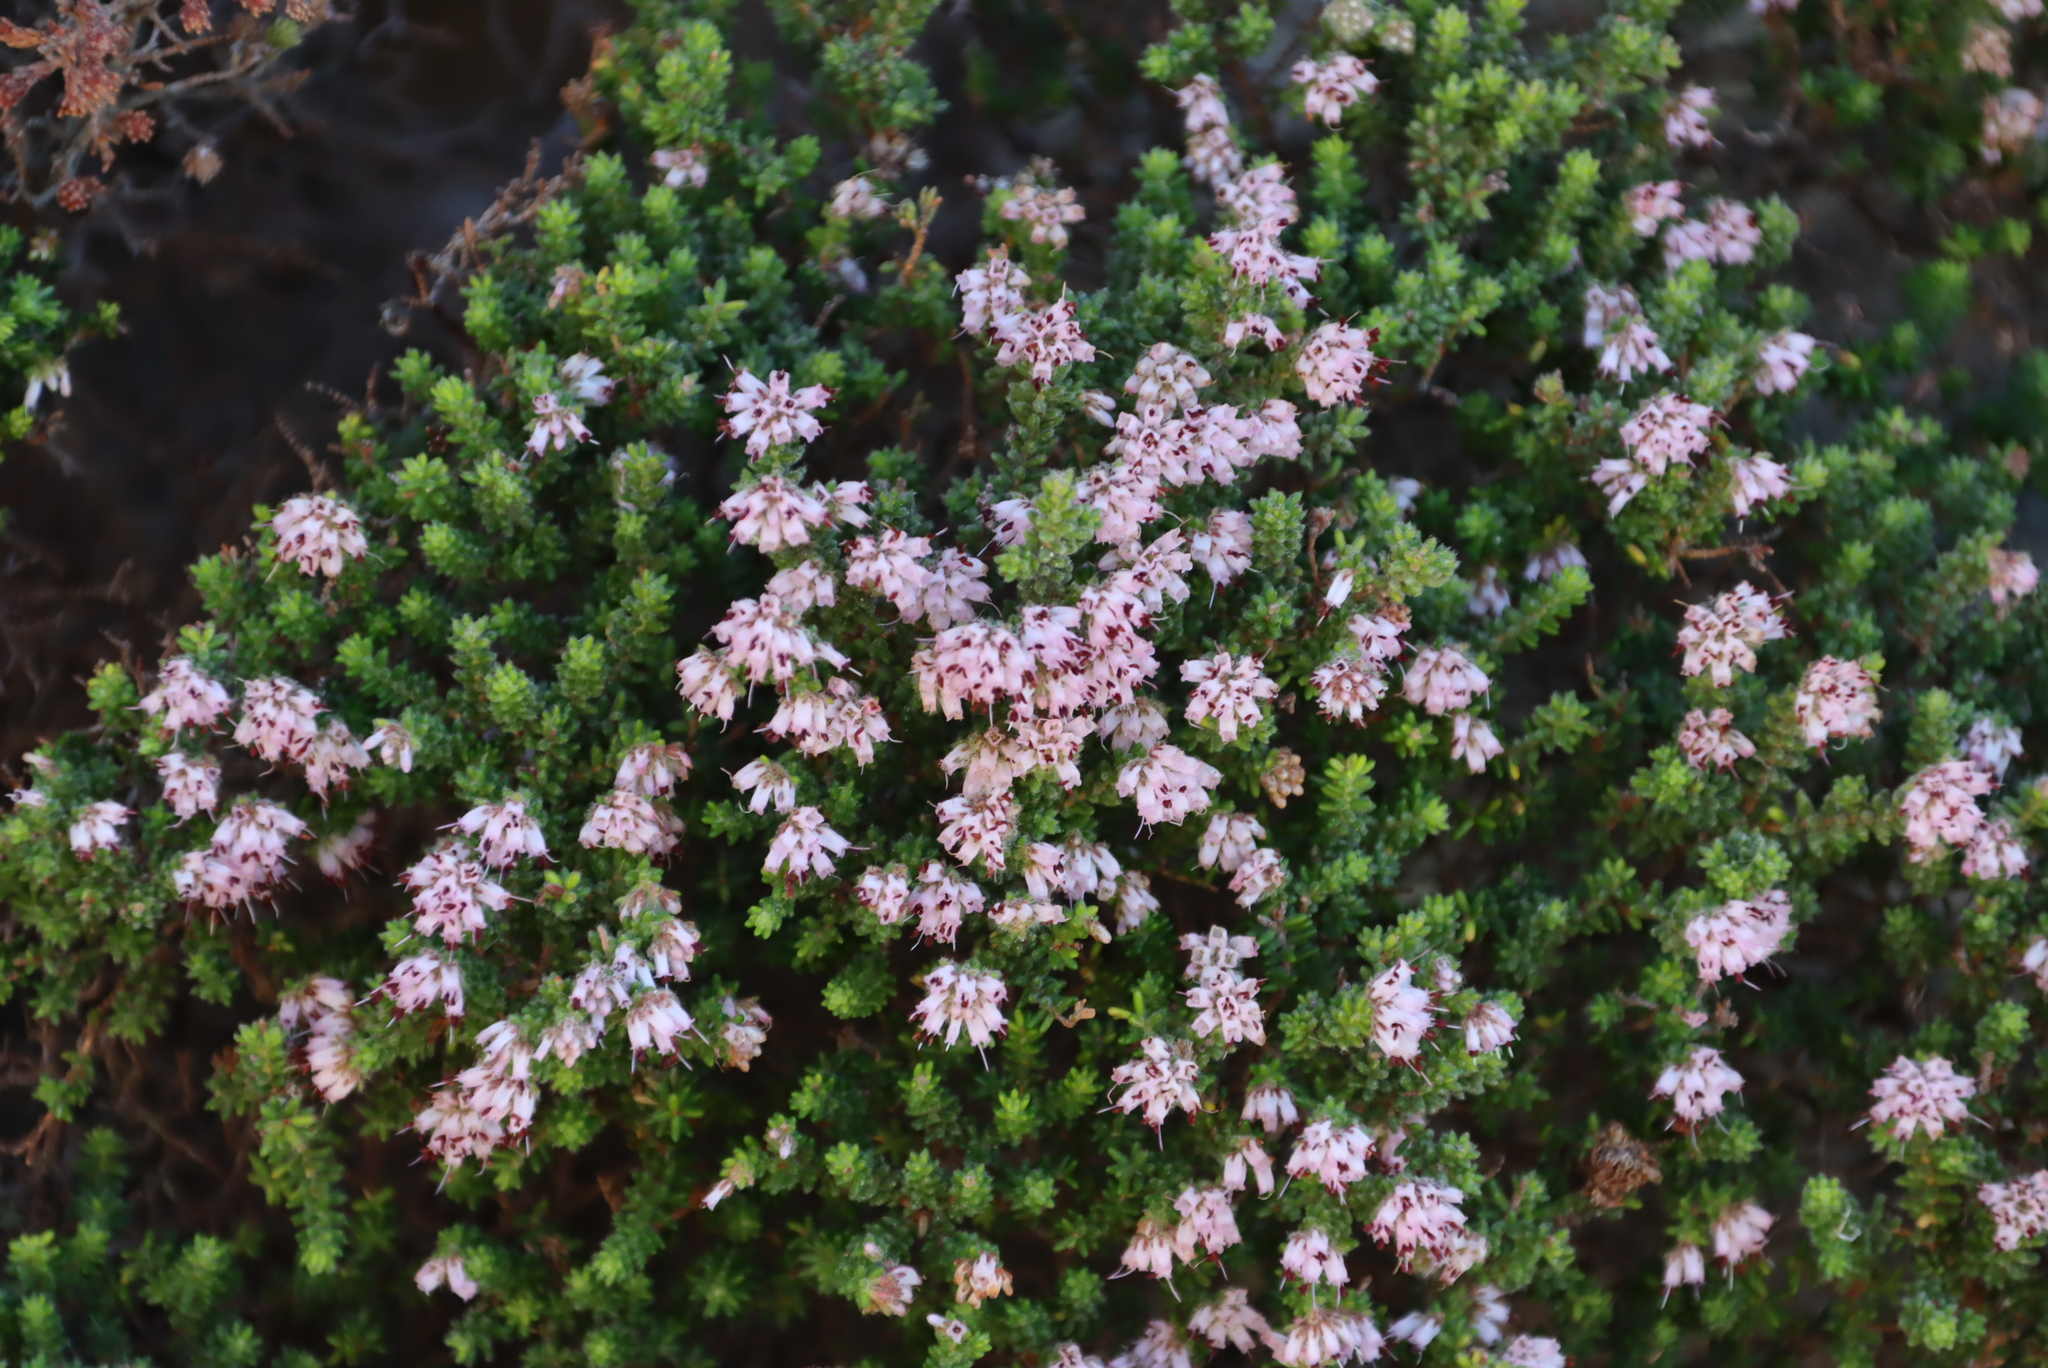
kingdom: Plantae
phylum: Tracheophyta
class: Magnoliopsida
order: Ericales
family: Ericaceae
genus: Erica
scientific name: Erica ericoides
